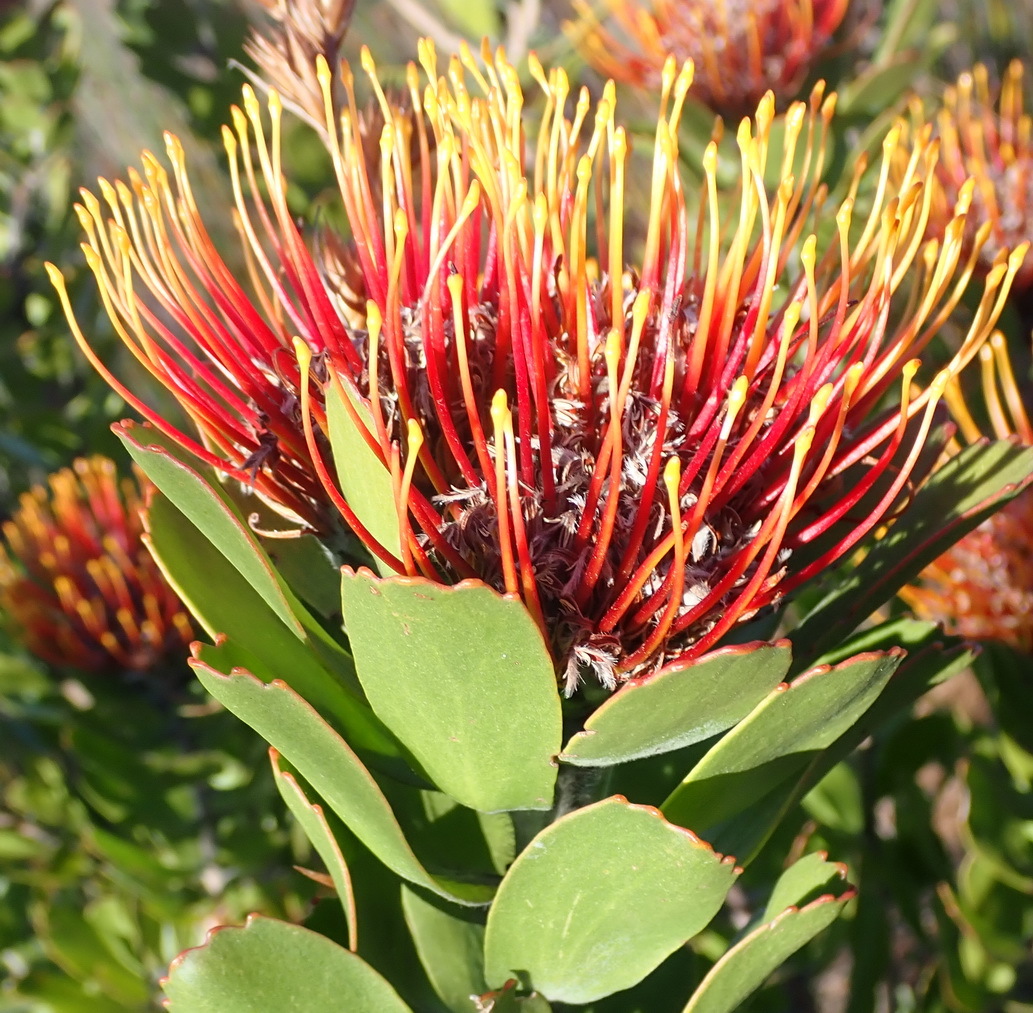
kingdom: Plantae
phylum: Tracheophyta
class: Magnoliopsida
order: Proteales
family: Proteaceae
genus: Leucospermum
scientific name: Leucospermum praecox
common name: Mossel bay pincushion
